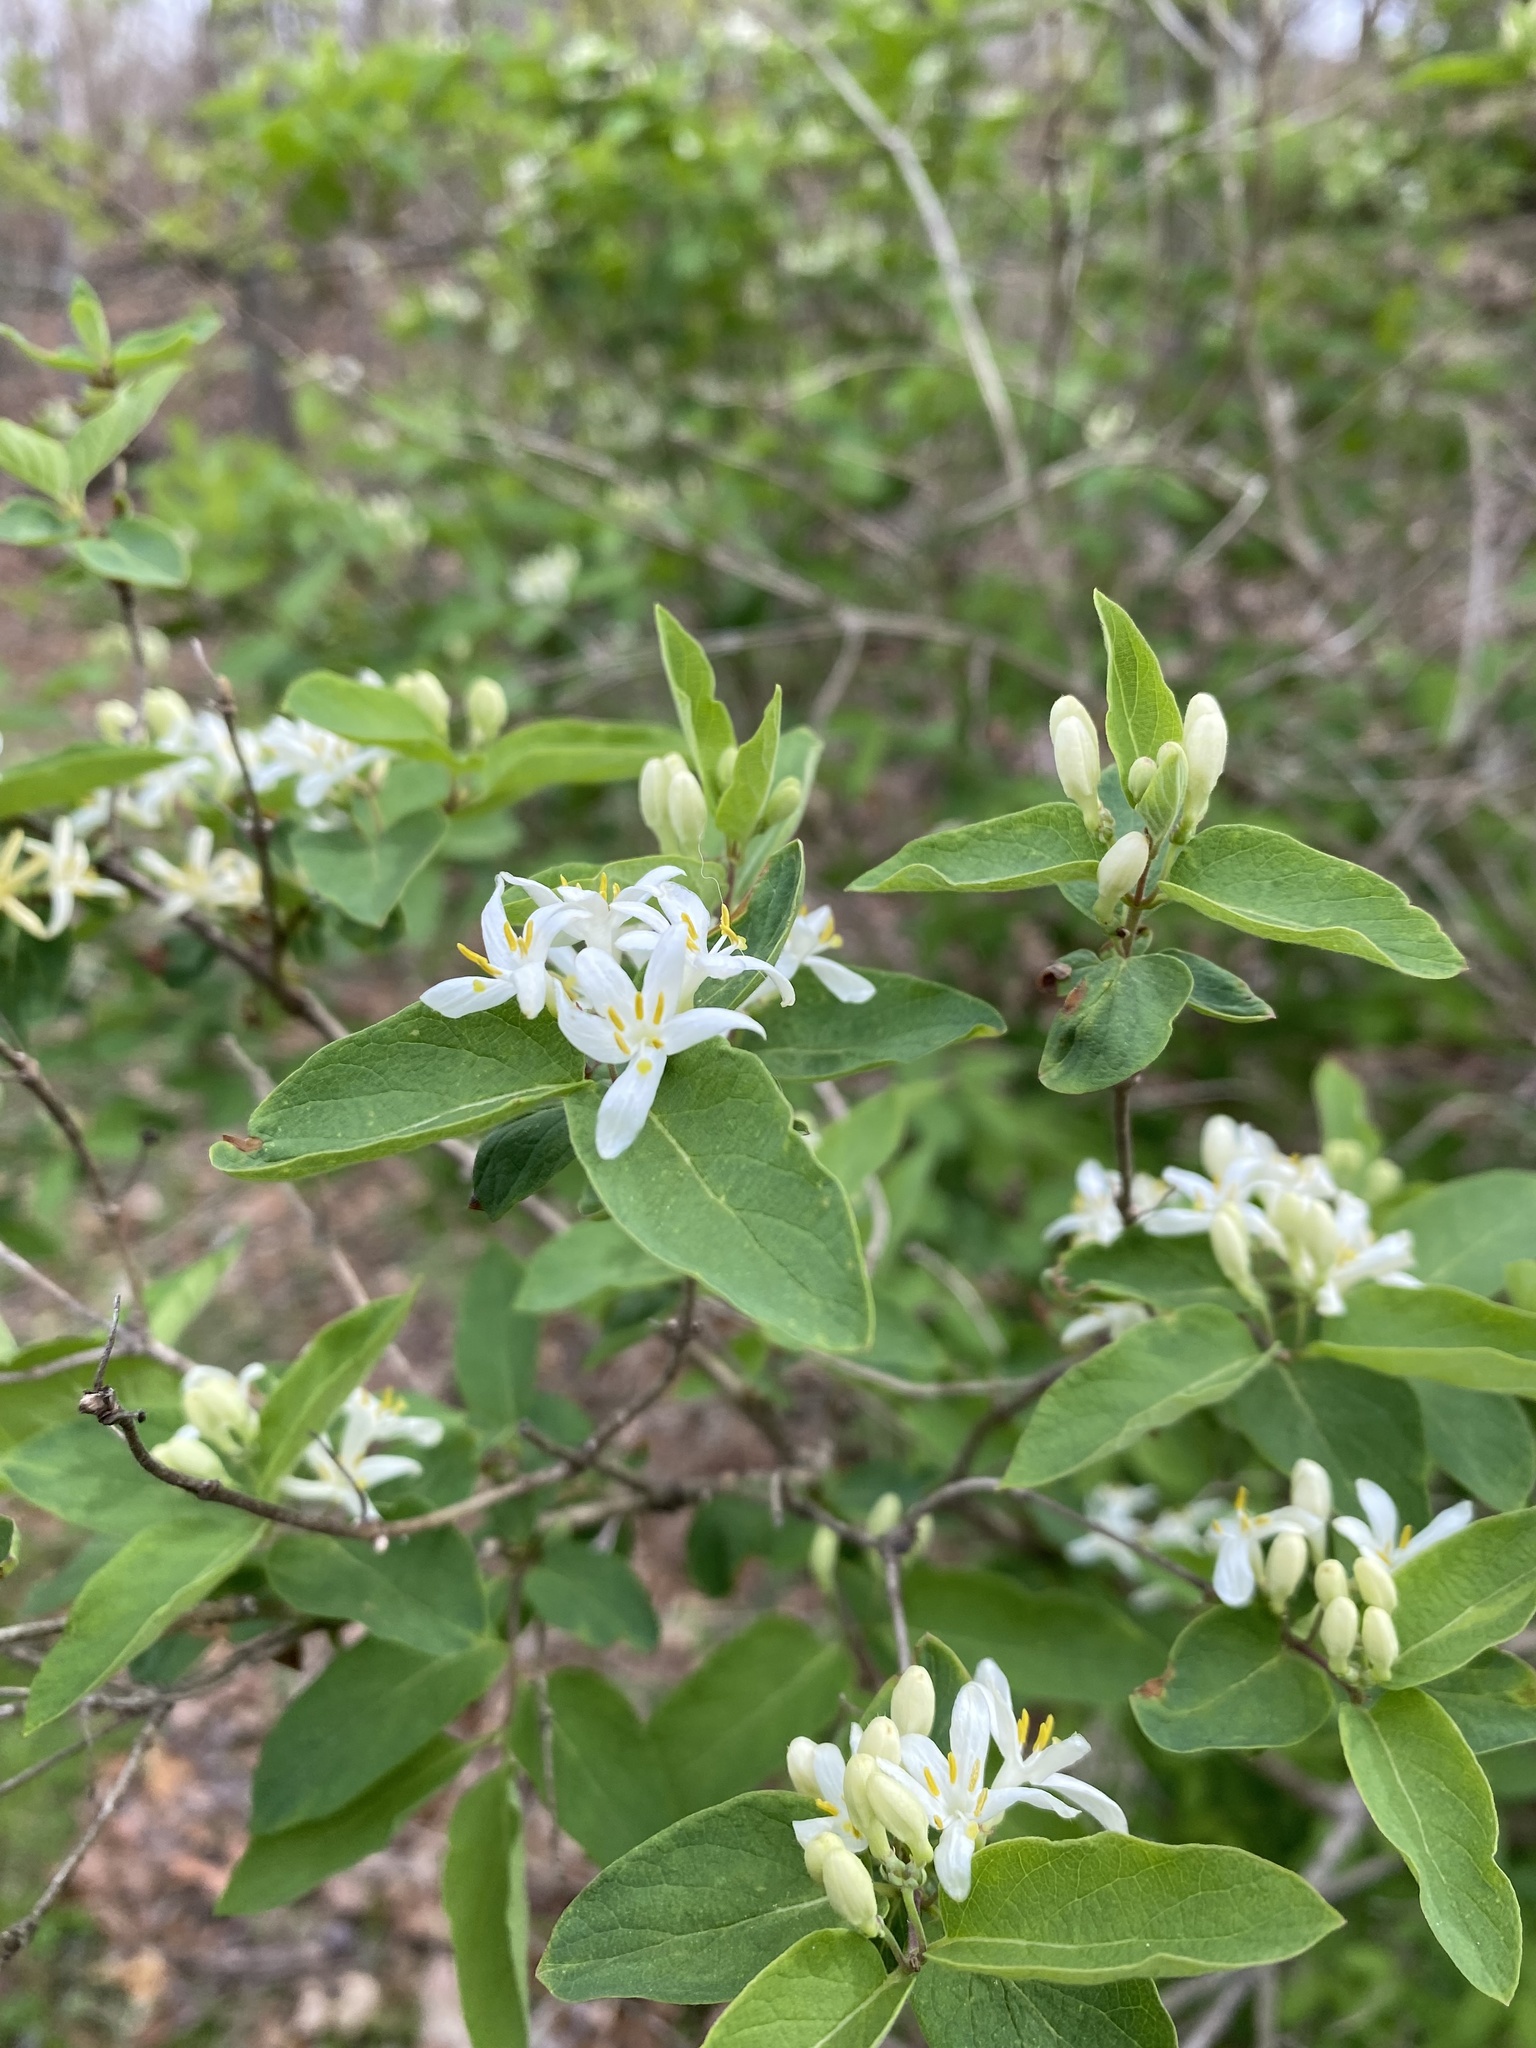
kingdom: Plantae
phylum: Tracheophyta
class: Magnoliopsida
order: Dipsacales
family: Caprifoliaceae
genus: Lonicera
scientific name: Lonicera morrowii
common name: Morrow's honeysuckle
